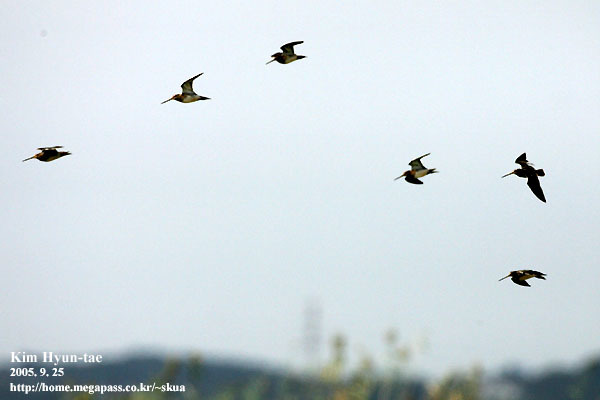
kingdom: Animalia
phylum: Chordata
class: Aves
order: Charadriiformes
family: Scolopacidae
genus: Gallinago
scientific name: Gallinago gallinago
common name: Common snipe
